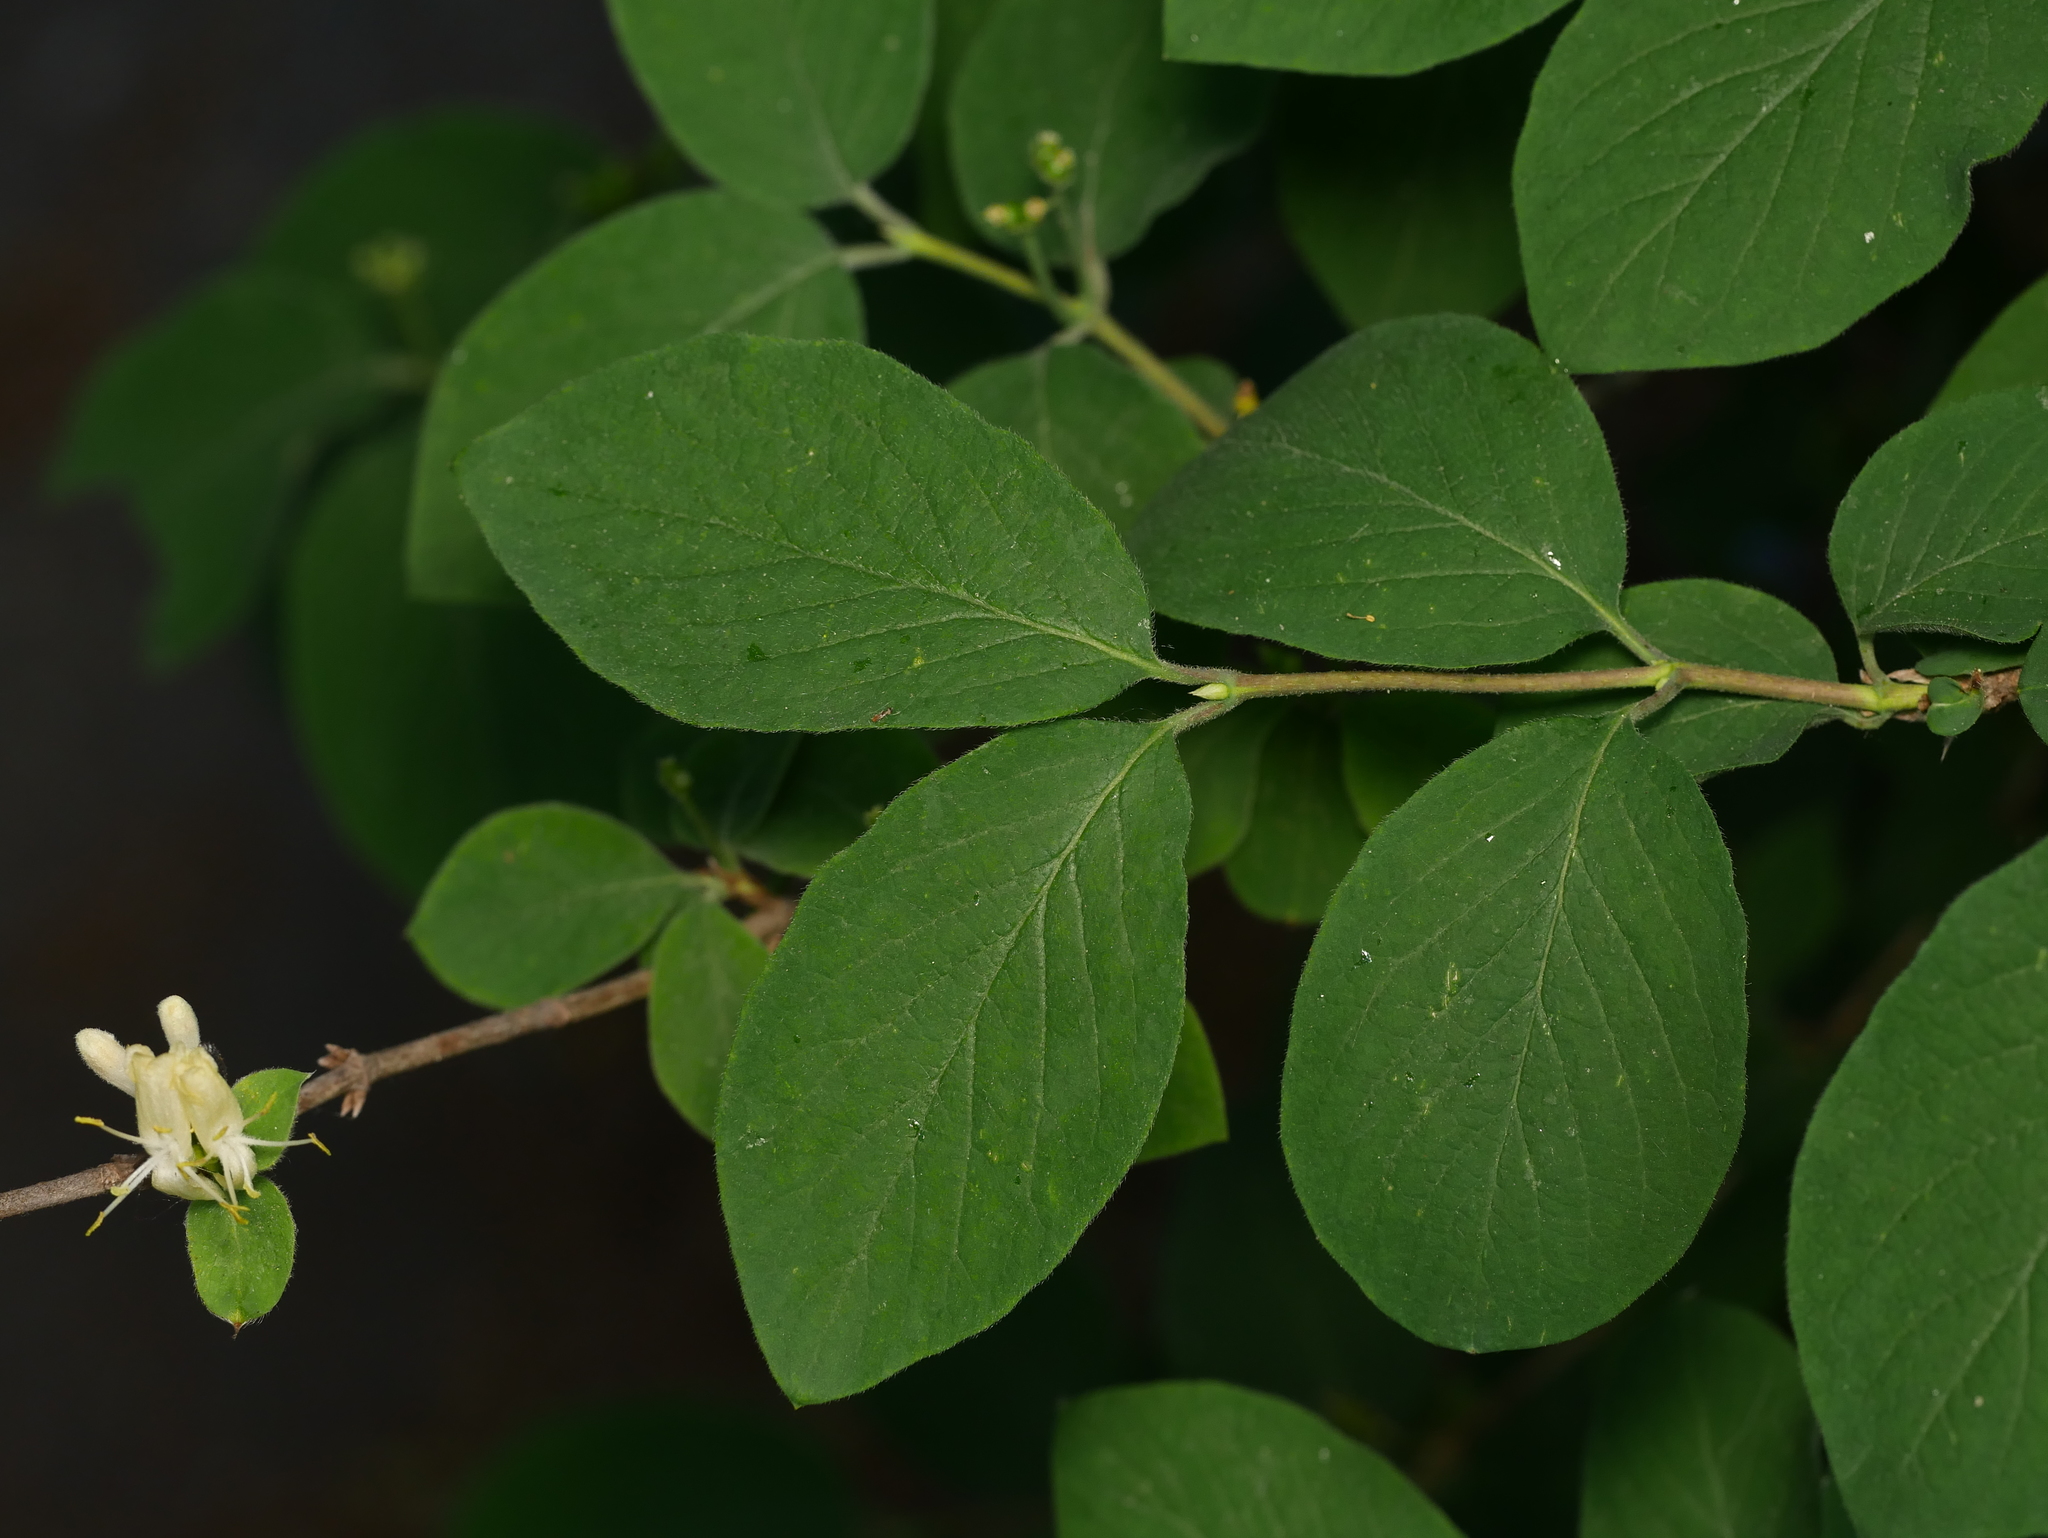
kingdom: Plantae
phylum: Tracheophyta
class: Magnoliopsida
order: Dipsacales
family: Caprifoliaceae
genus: Lonicera
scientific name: Lonicera xylosteum
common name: Fly honeysuckle
